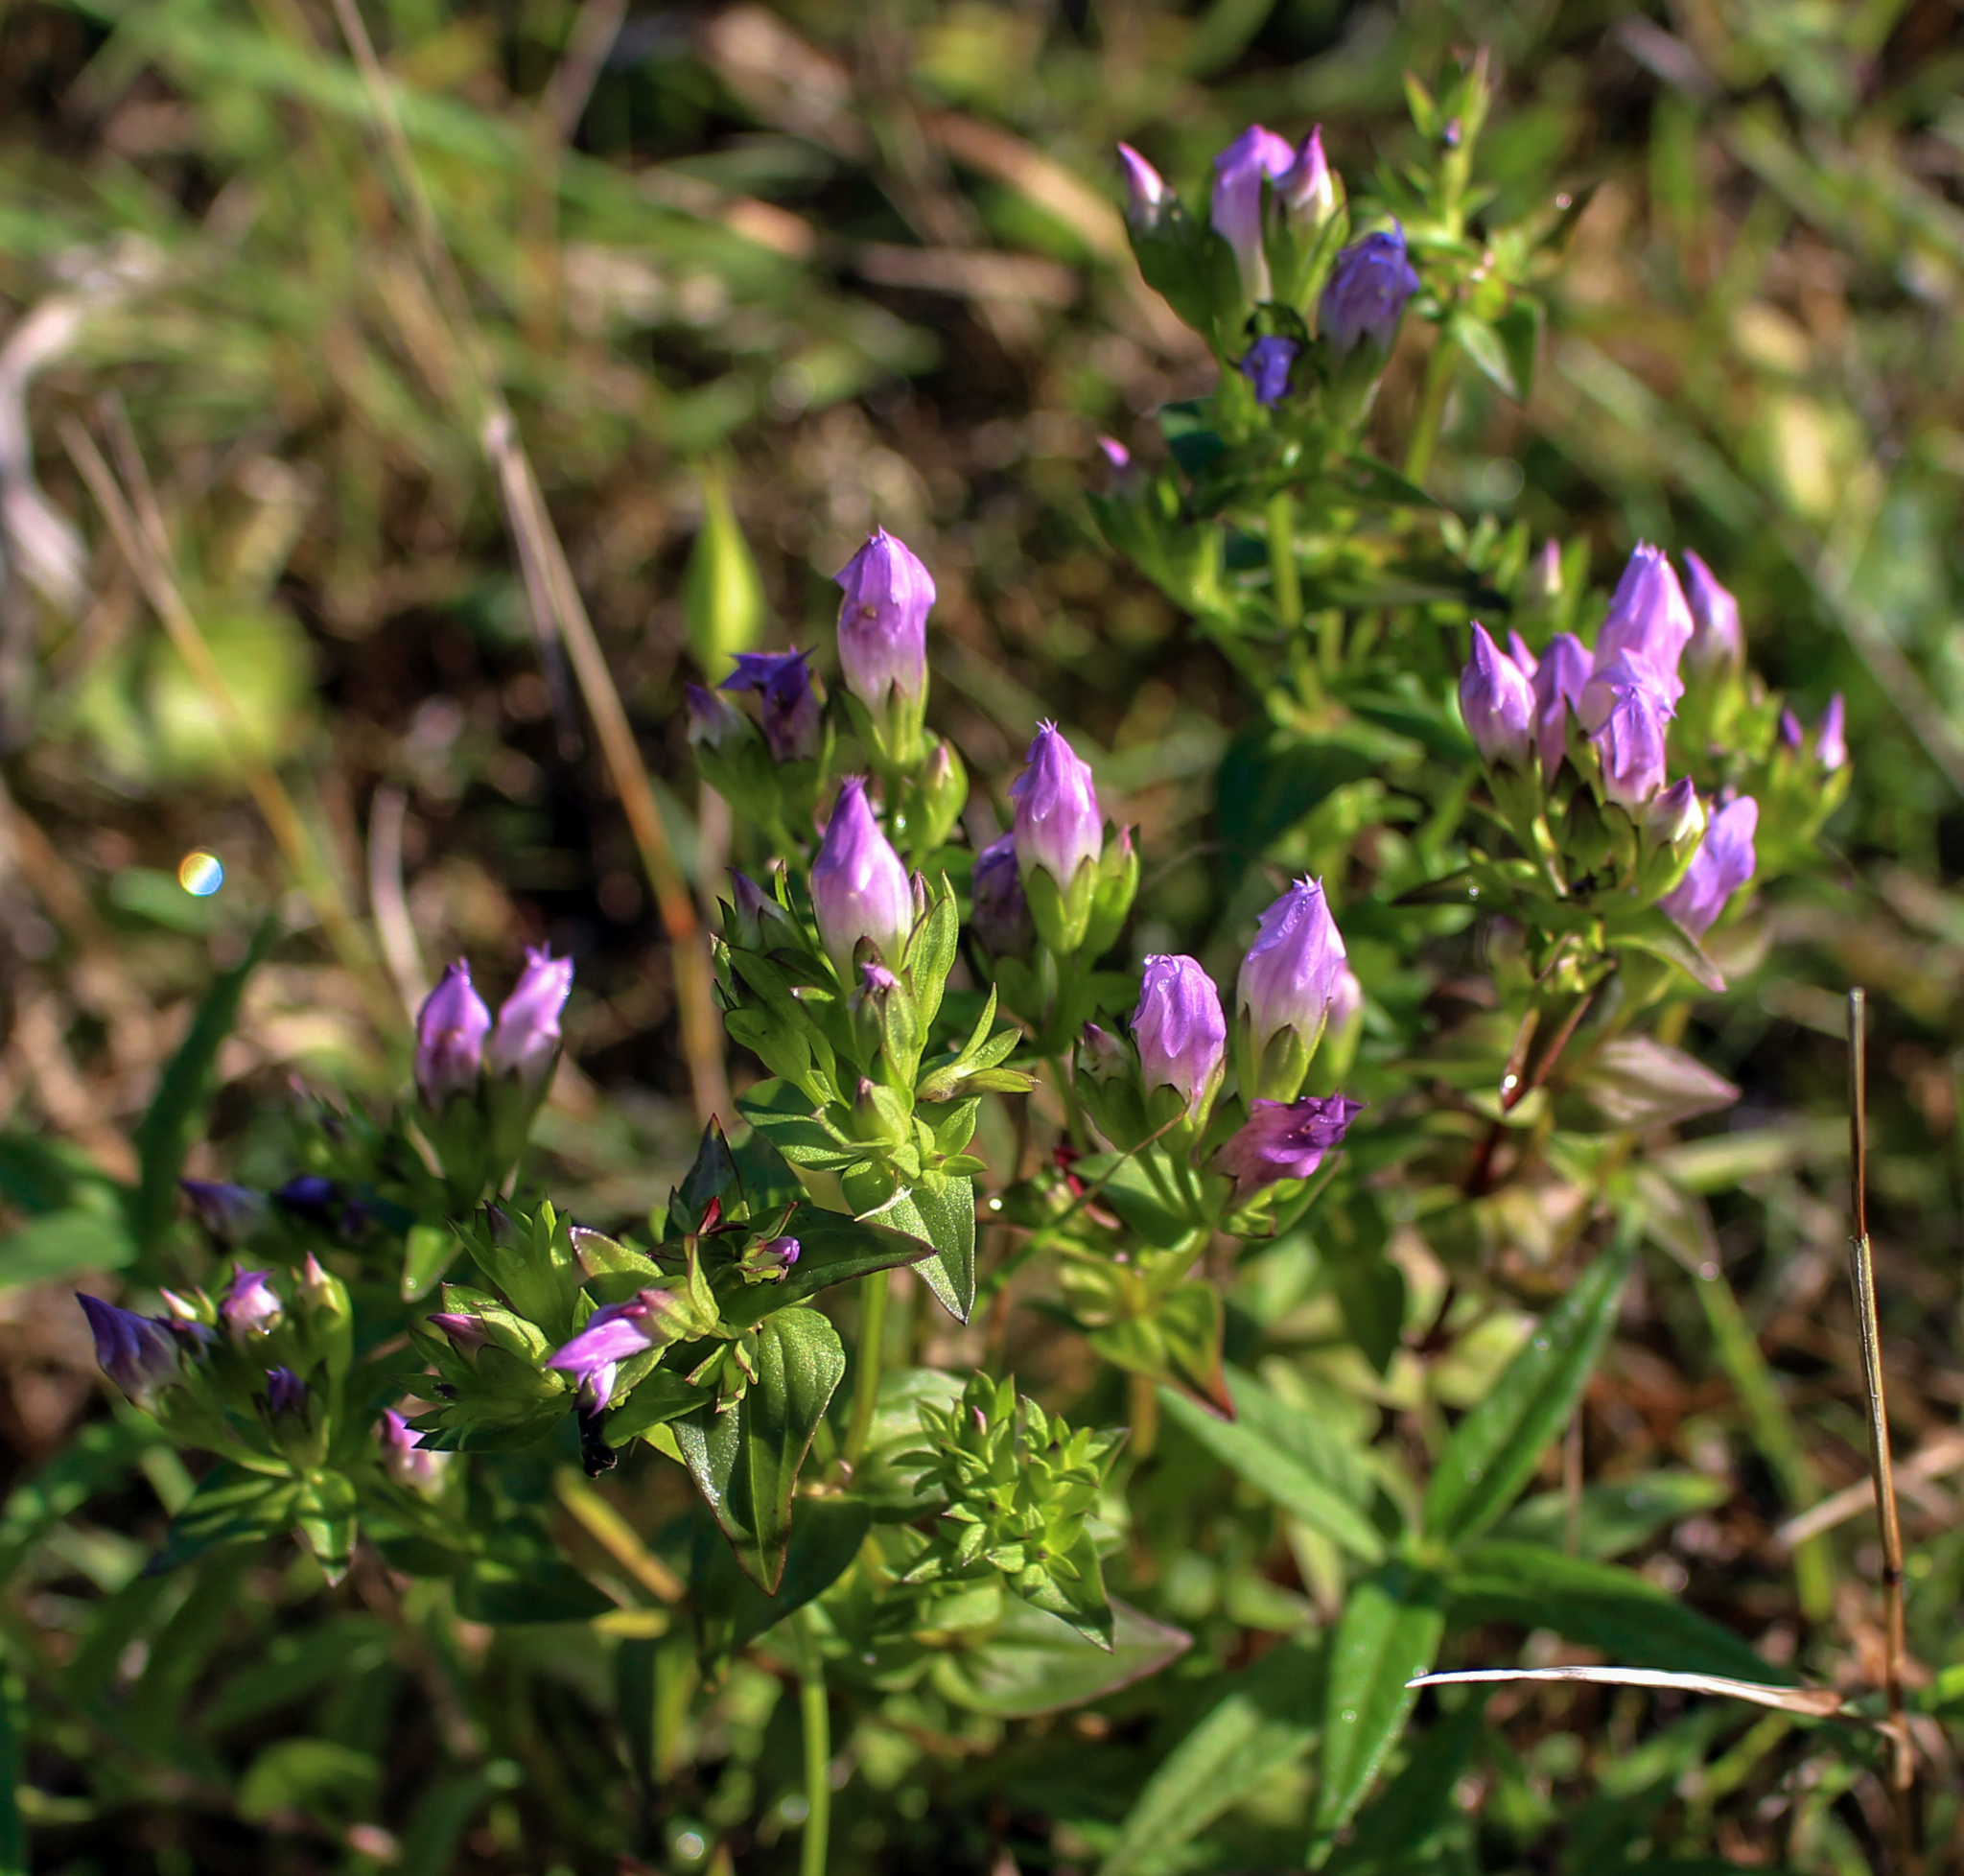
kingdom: Plantae
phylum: Tracheophyta
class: Magnoliopsida
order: Gentianales
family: Gentianaceae
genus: Gentianella
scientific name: Gentianella quinquefolia
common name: Agueweed
